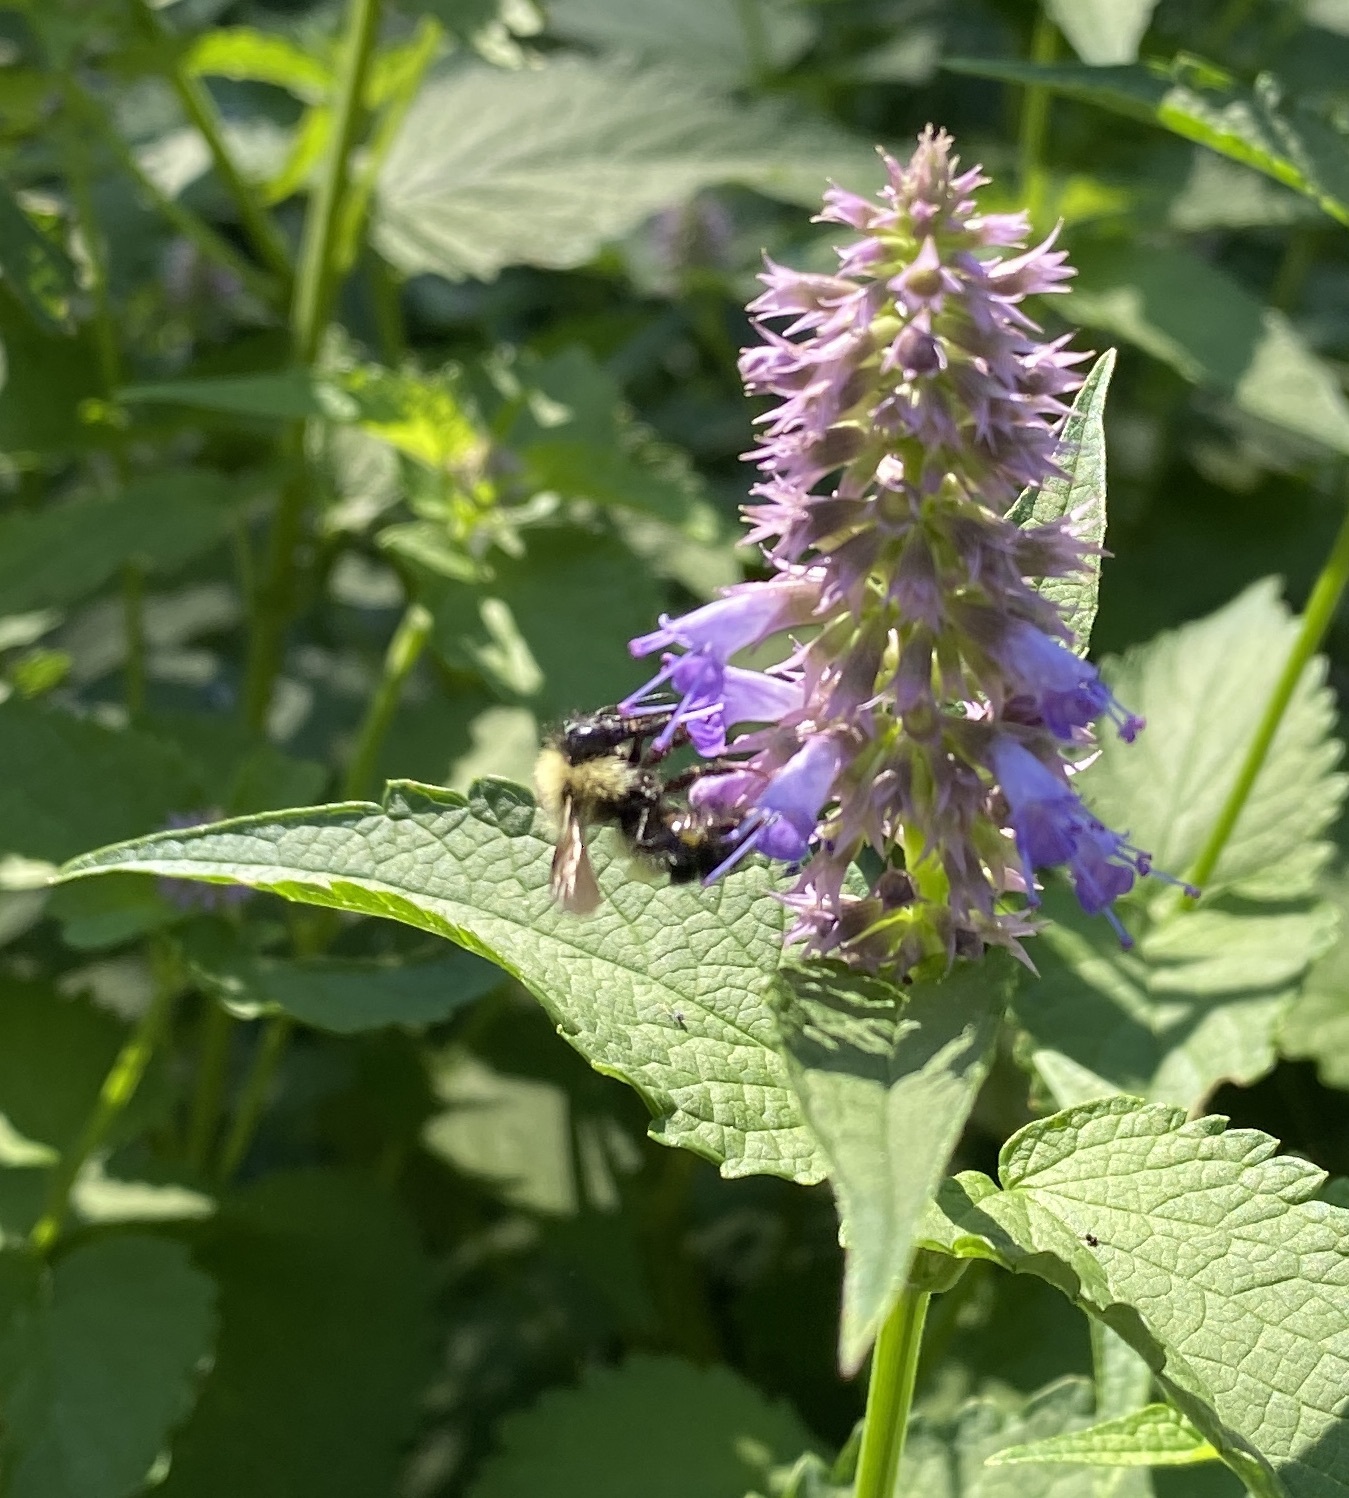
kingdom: Animalia
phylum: Arthropoda
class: Insecta
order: Hymenoptera
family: Apidae
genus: Pyrobombus
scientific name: Pyrobombus
